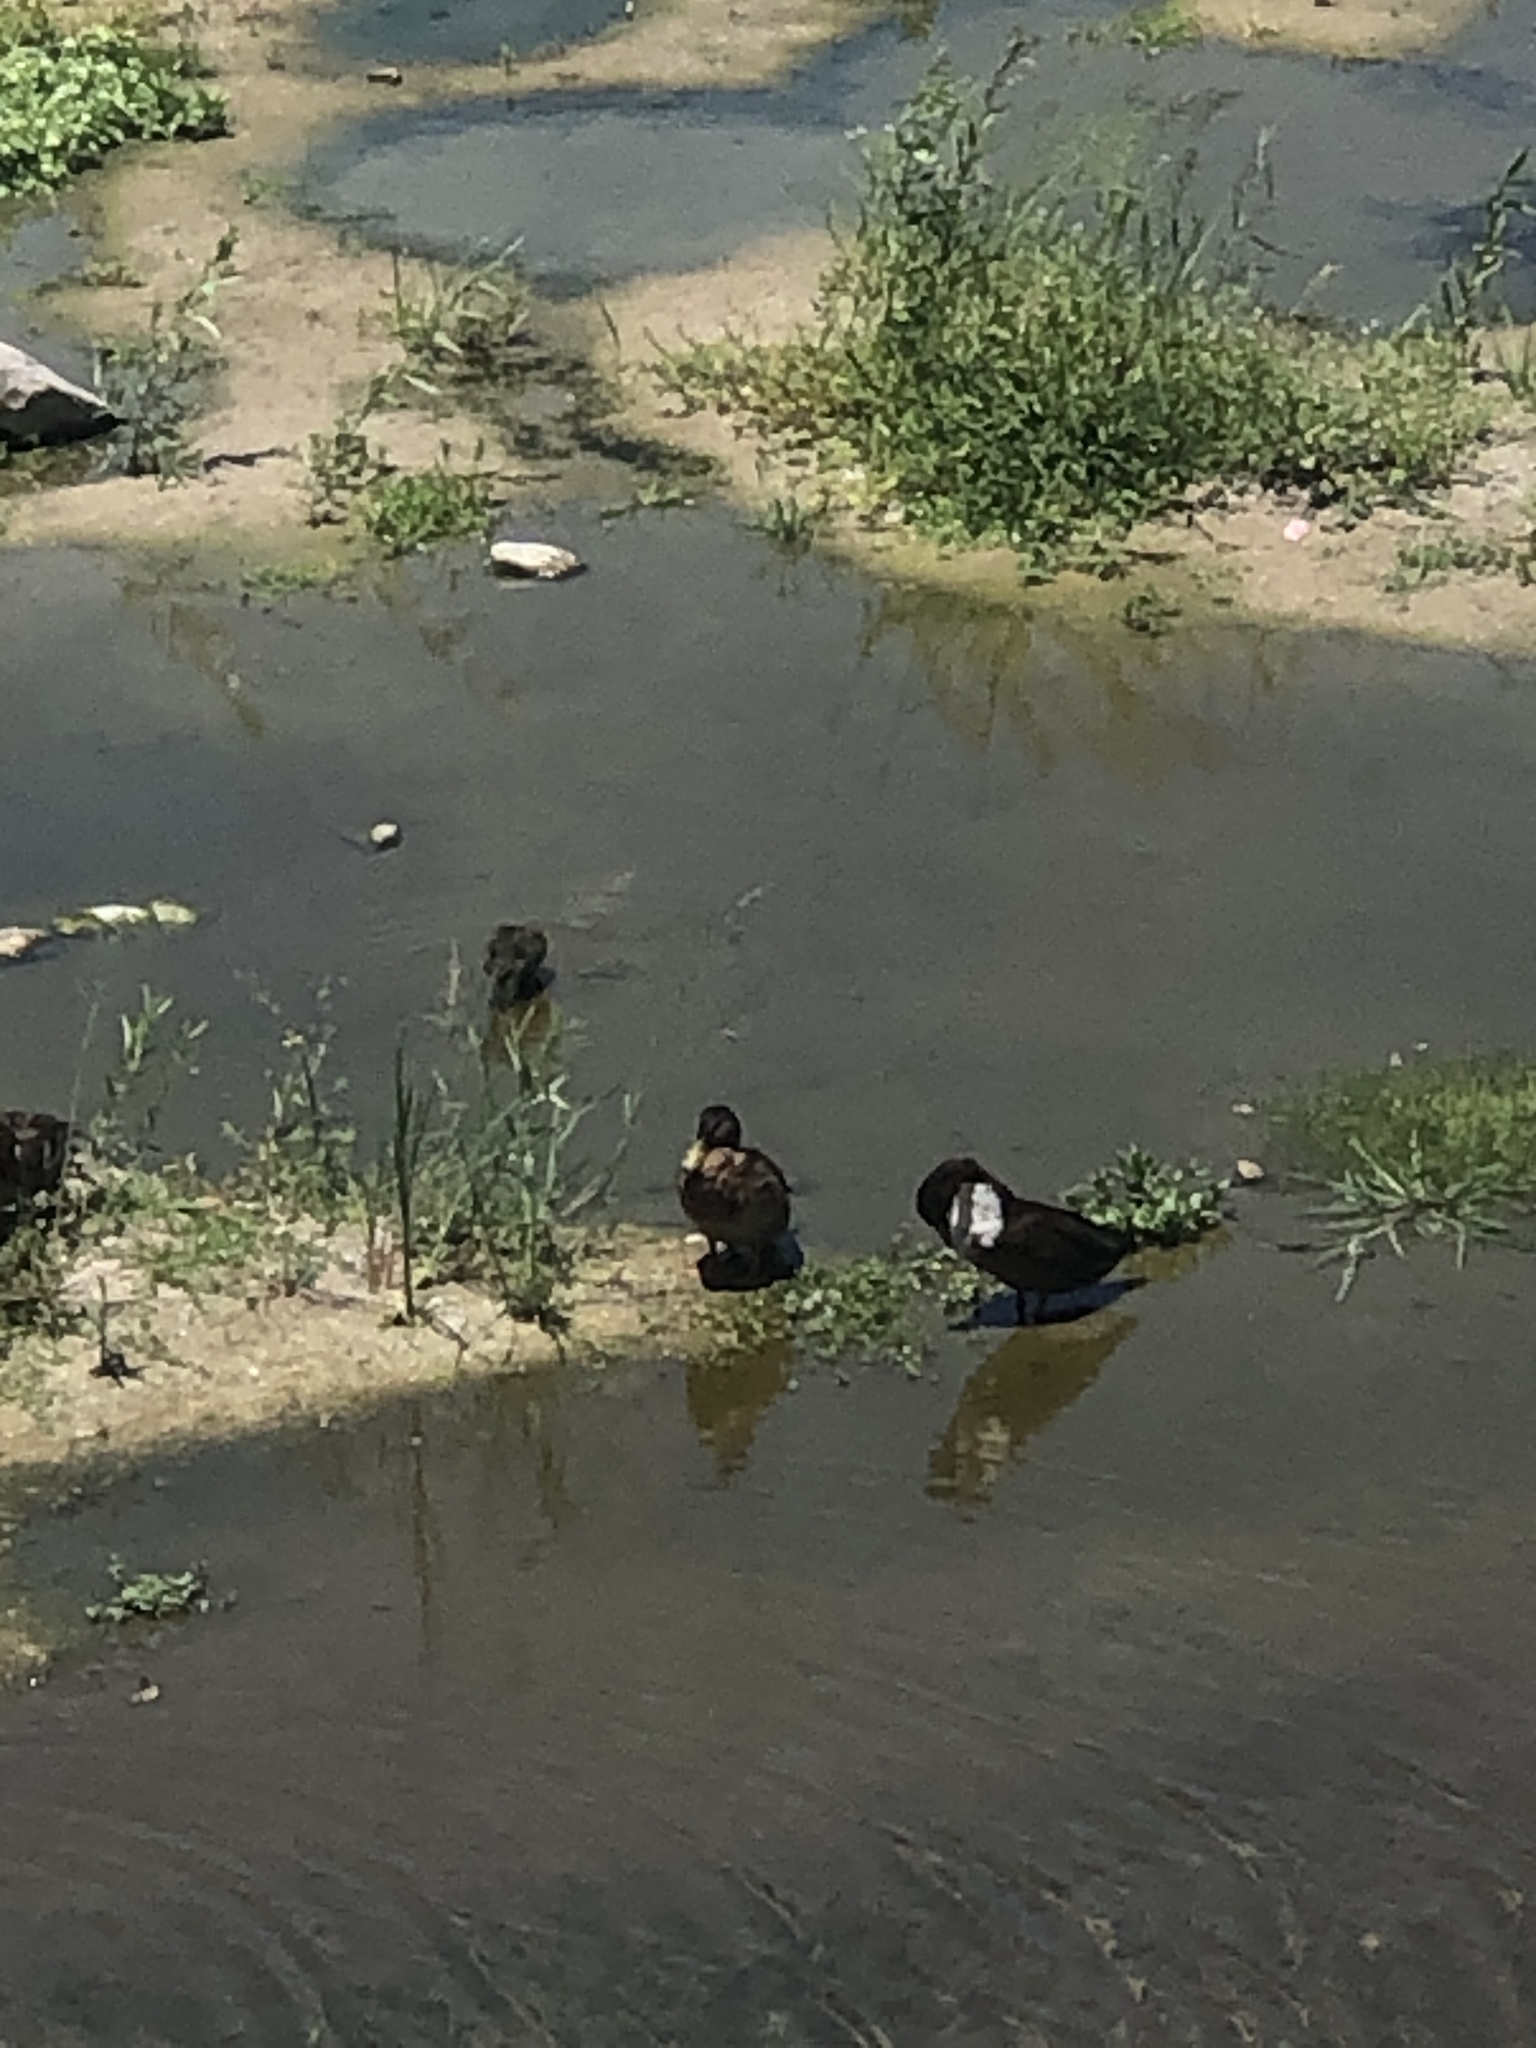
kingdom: Animalia
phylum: Chordata
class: Aves
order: Anseriformes
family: Anatidae
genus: Anas
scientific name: Anas platyrhynchos
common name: Mallard
